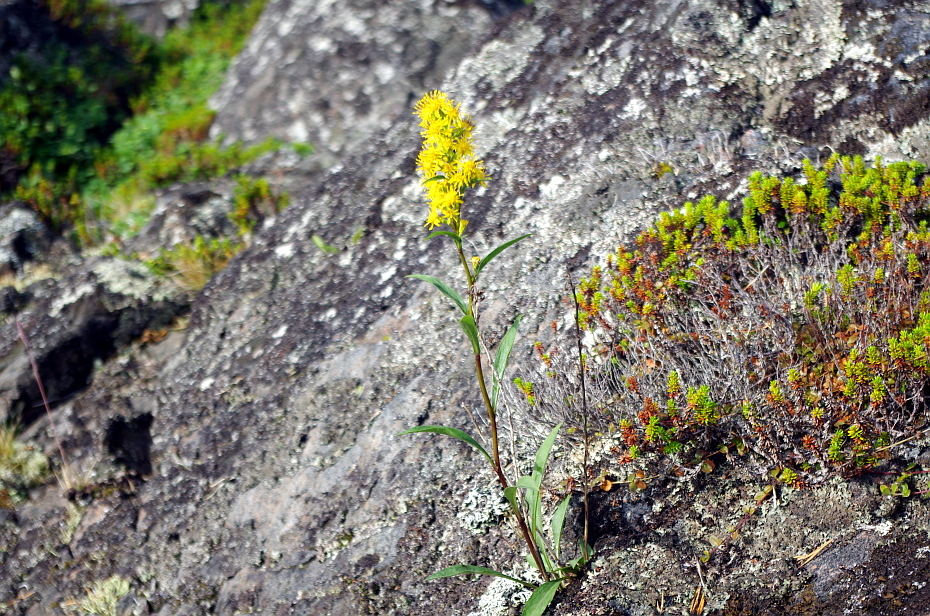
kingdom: Plantae
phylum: Tracheophyta
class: Magnoliopsida
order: Asterales
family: Asteraceae
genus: Solidago
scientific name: Solidago virgaurea
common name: Goldenrod
